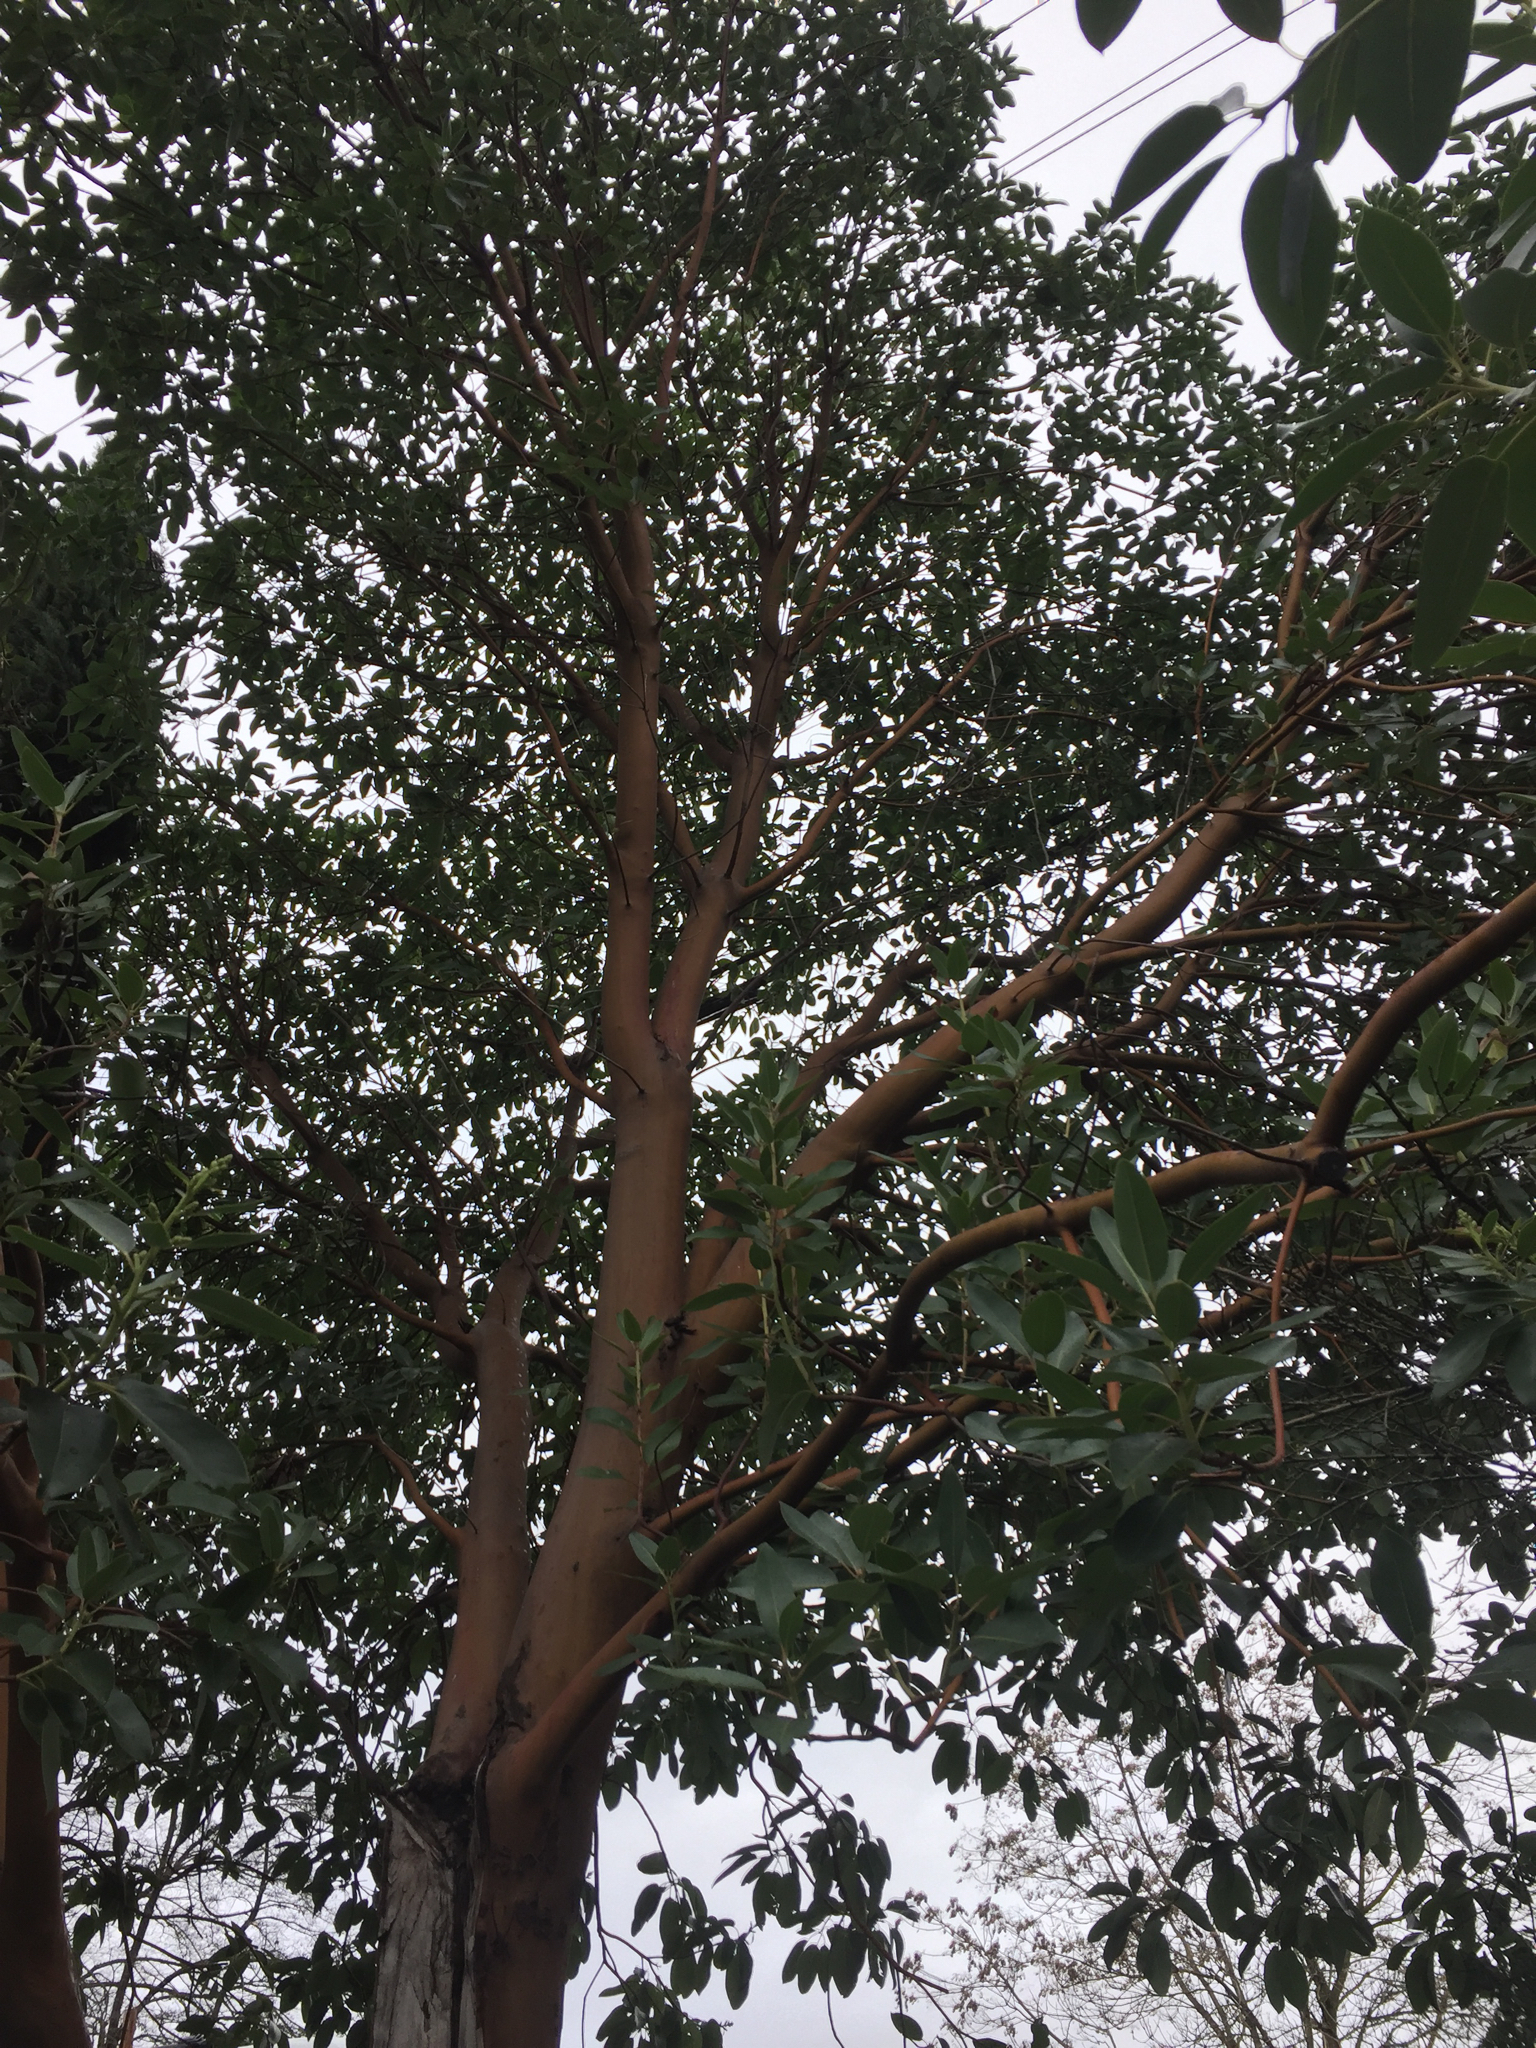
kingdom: Plantae
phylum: Tracheophyta
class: Magnoliopsida
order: Ericales
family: Ericaceae
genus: Arbutus
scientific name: Arbutus menziesii
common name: Pacific madrone
